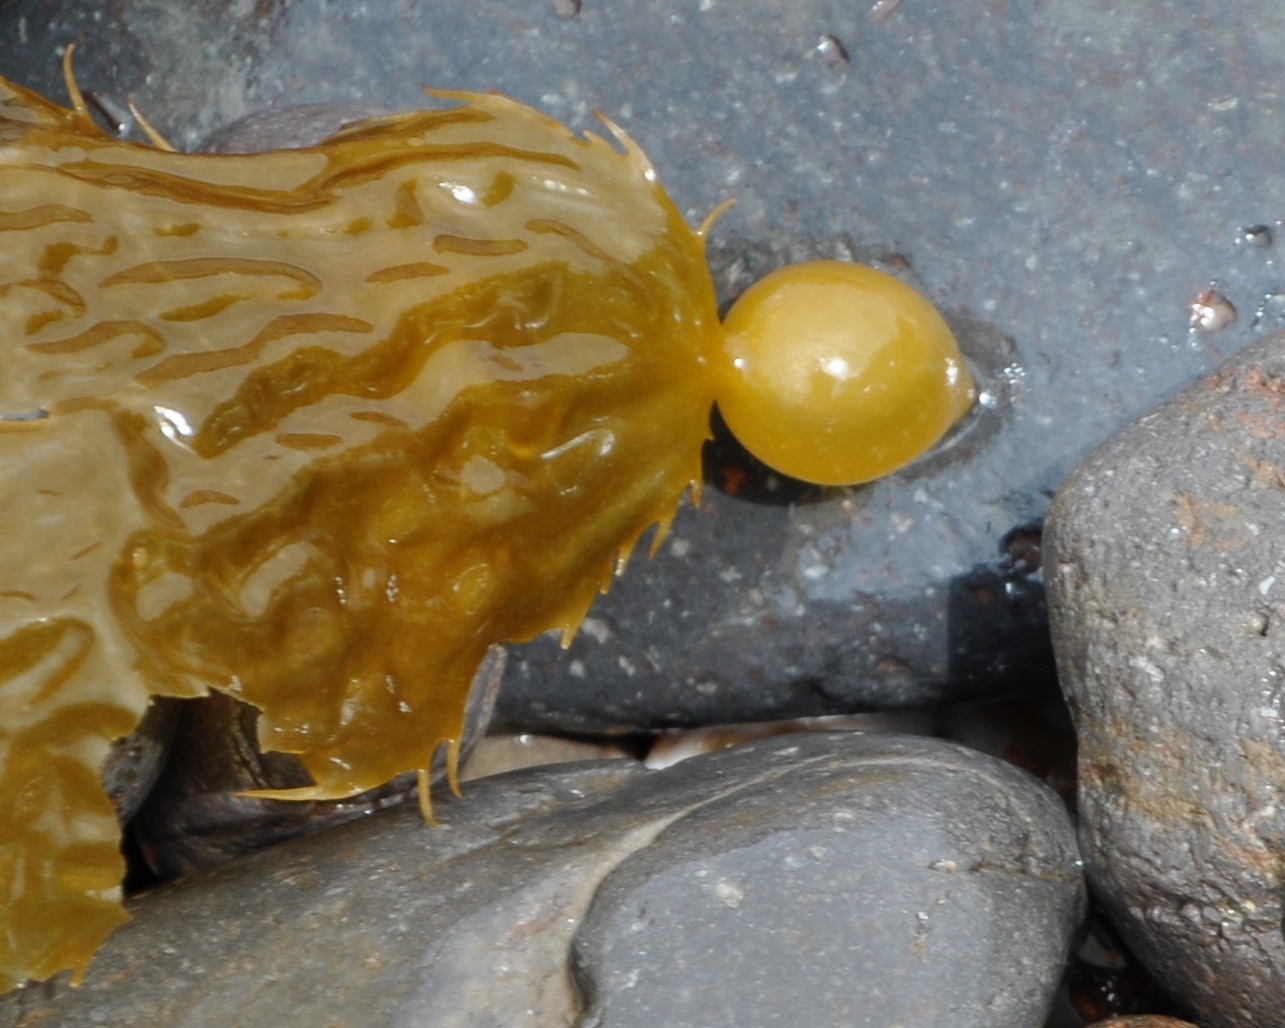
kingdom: Chromista
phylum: Ochrophyta
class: Phaeophyceae
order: Laminariales
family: Laminariaceae
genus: Macrocystis
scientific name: Macrocystis pyrifera
